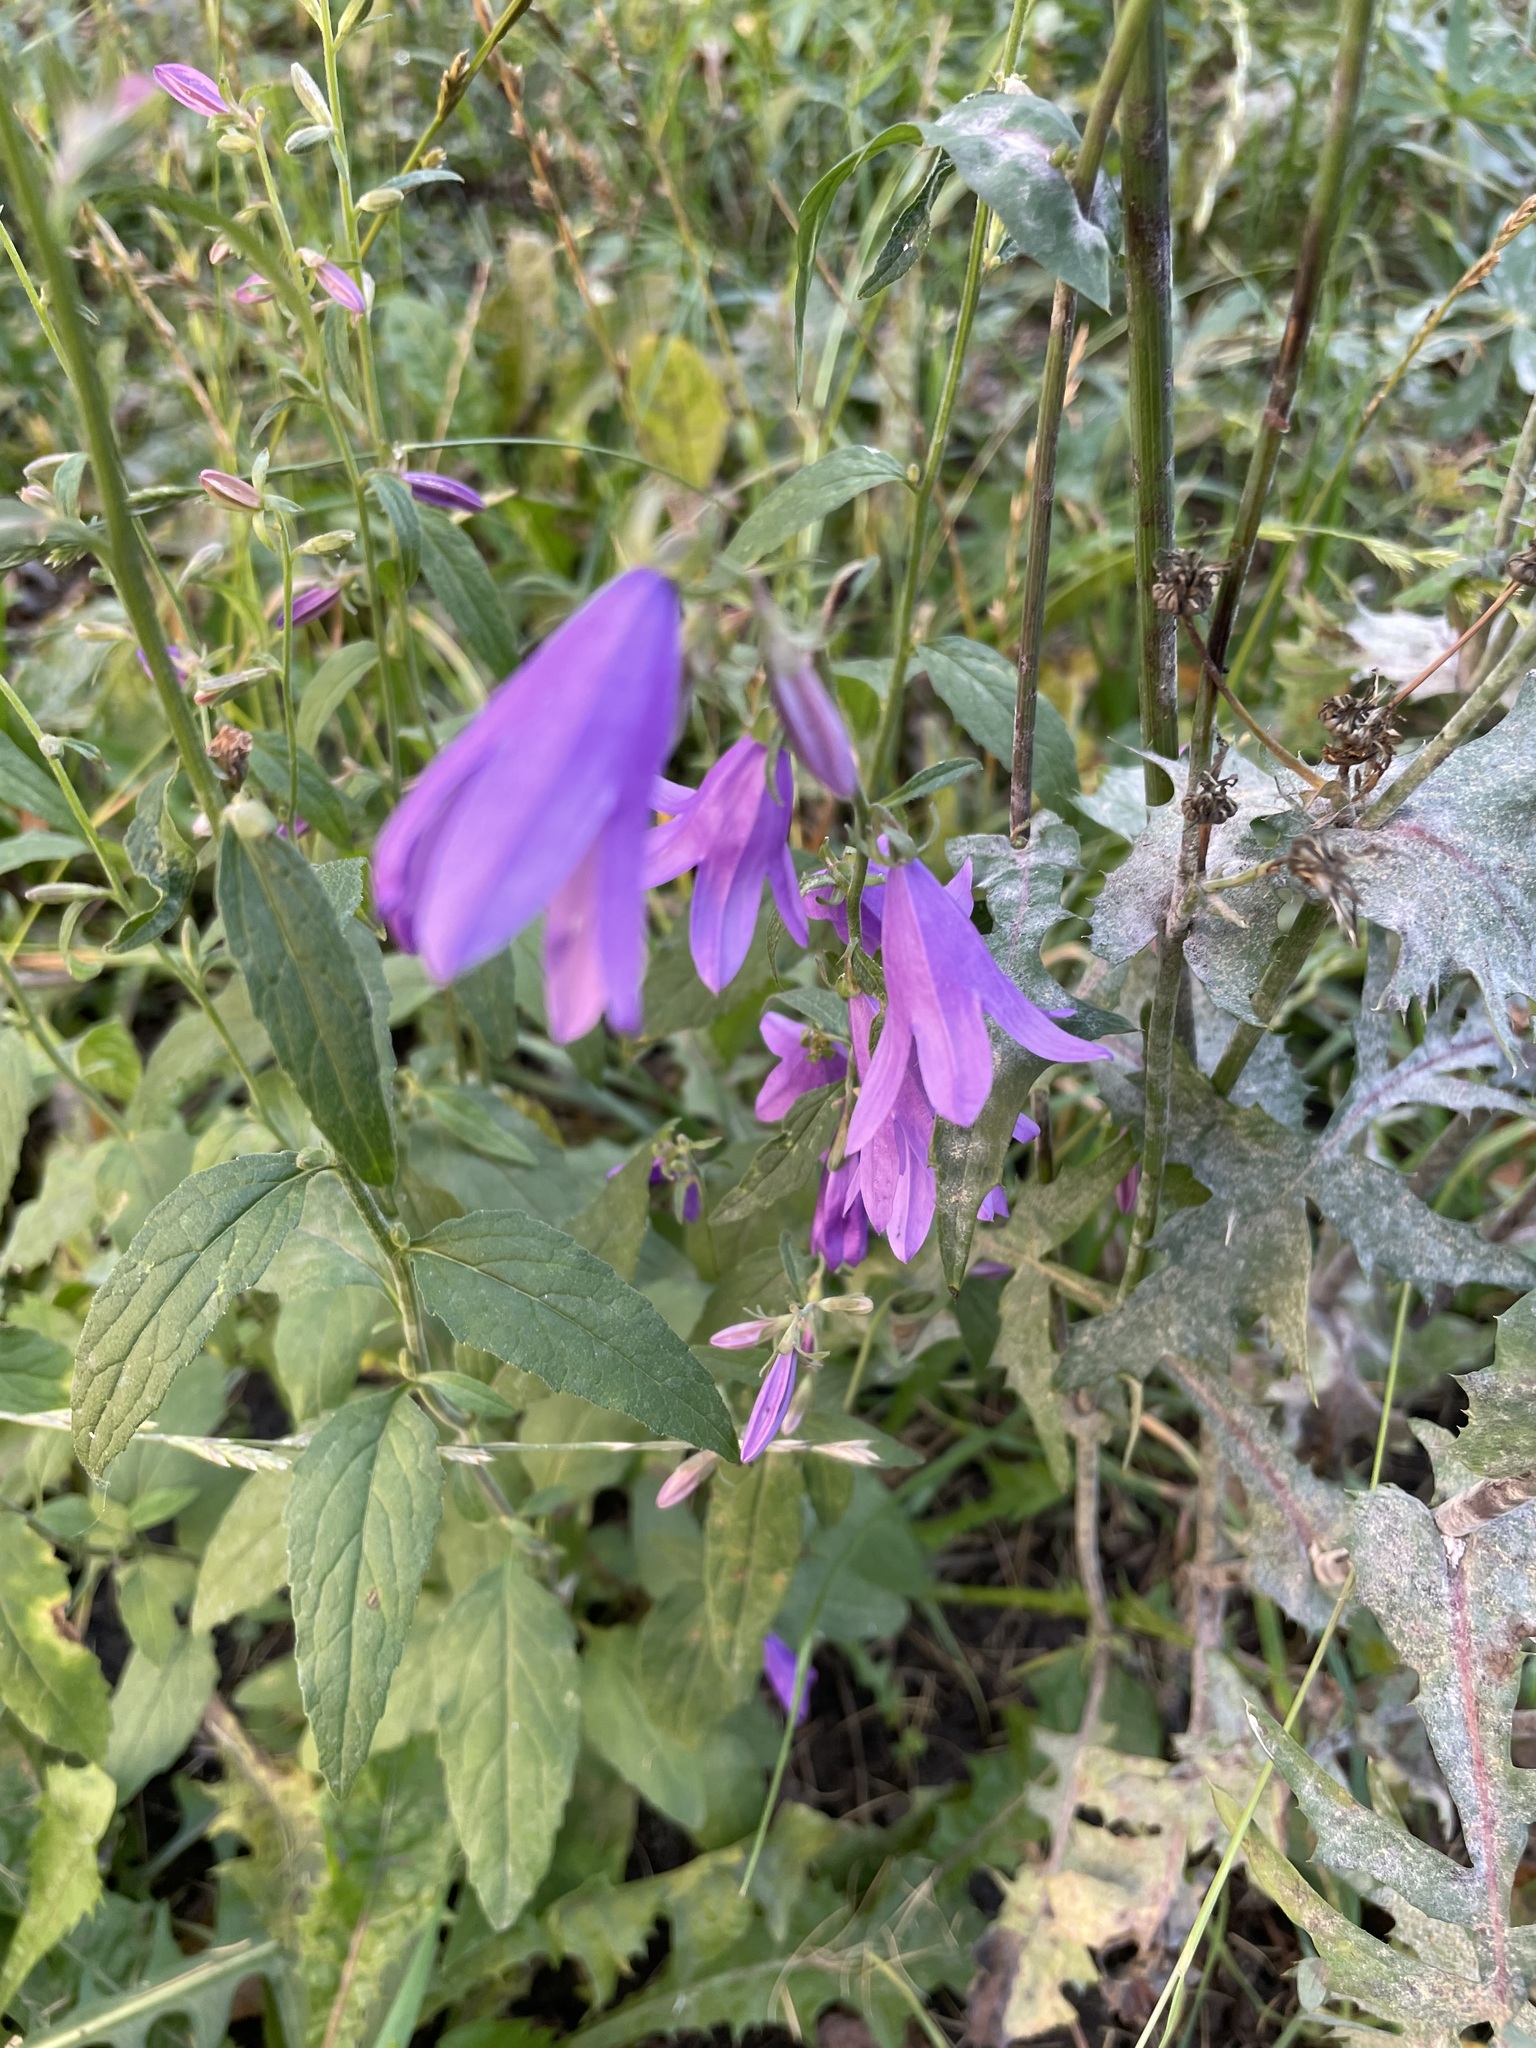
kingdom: Plantae
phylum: Tracheophyta
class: Magnoliopsida
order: Asterales
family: Campanulaceae
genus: Campanula
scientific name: Campanula rapunculoides
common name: Creeping bellflower
